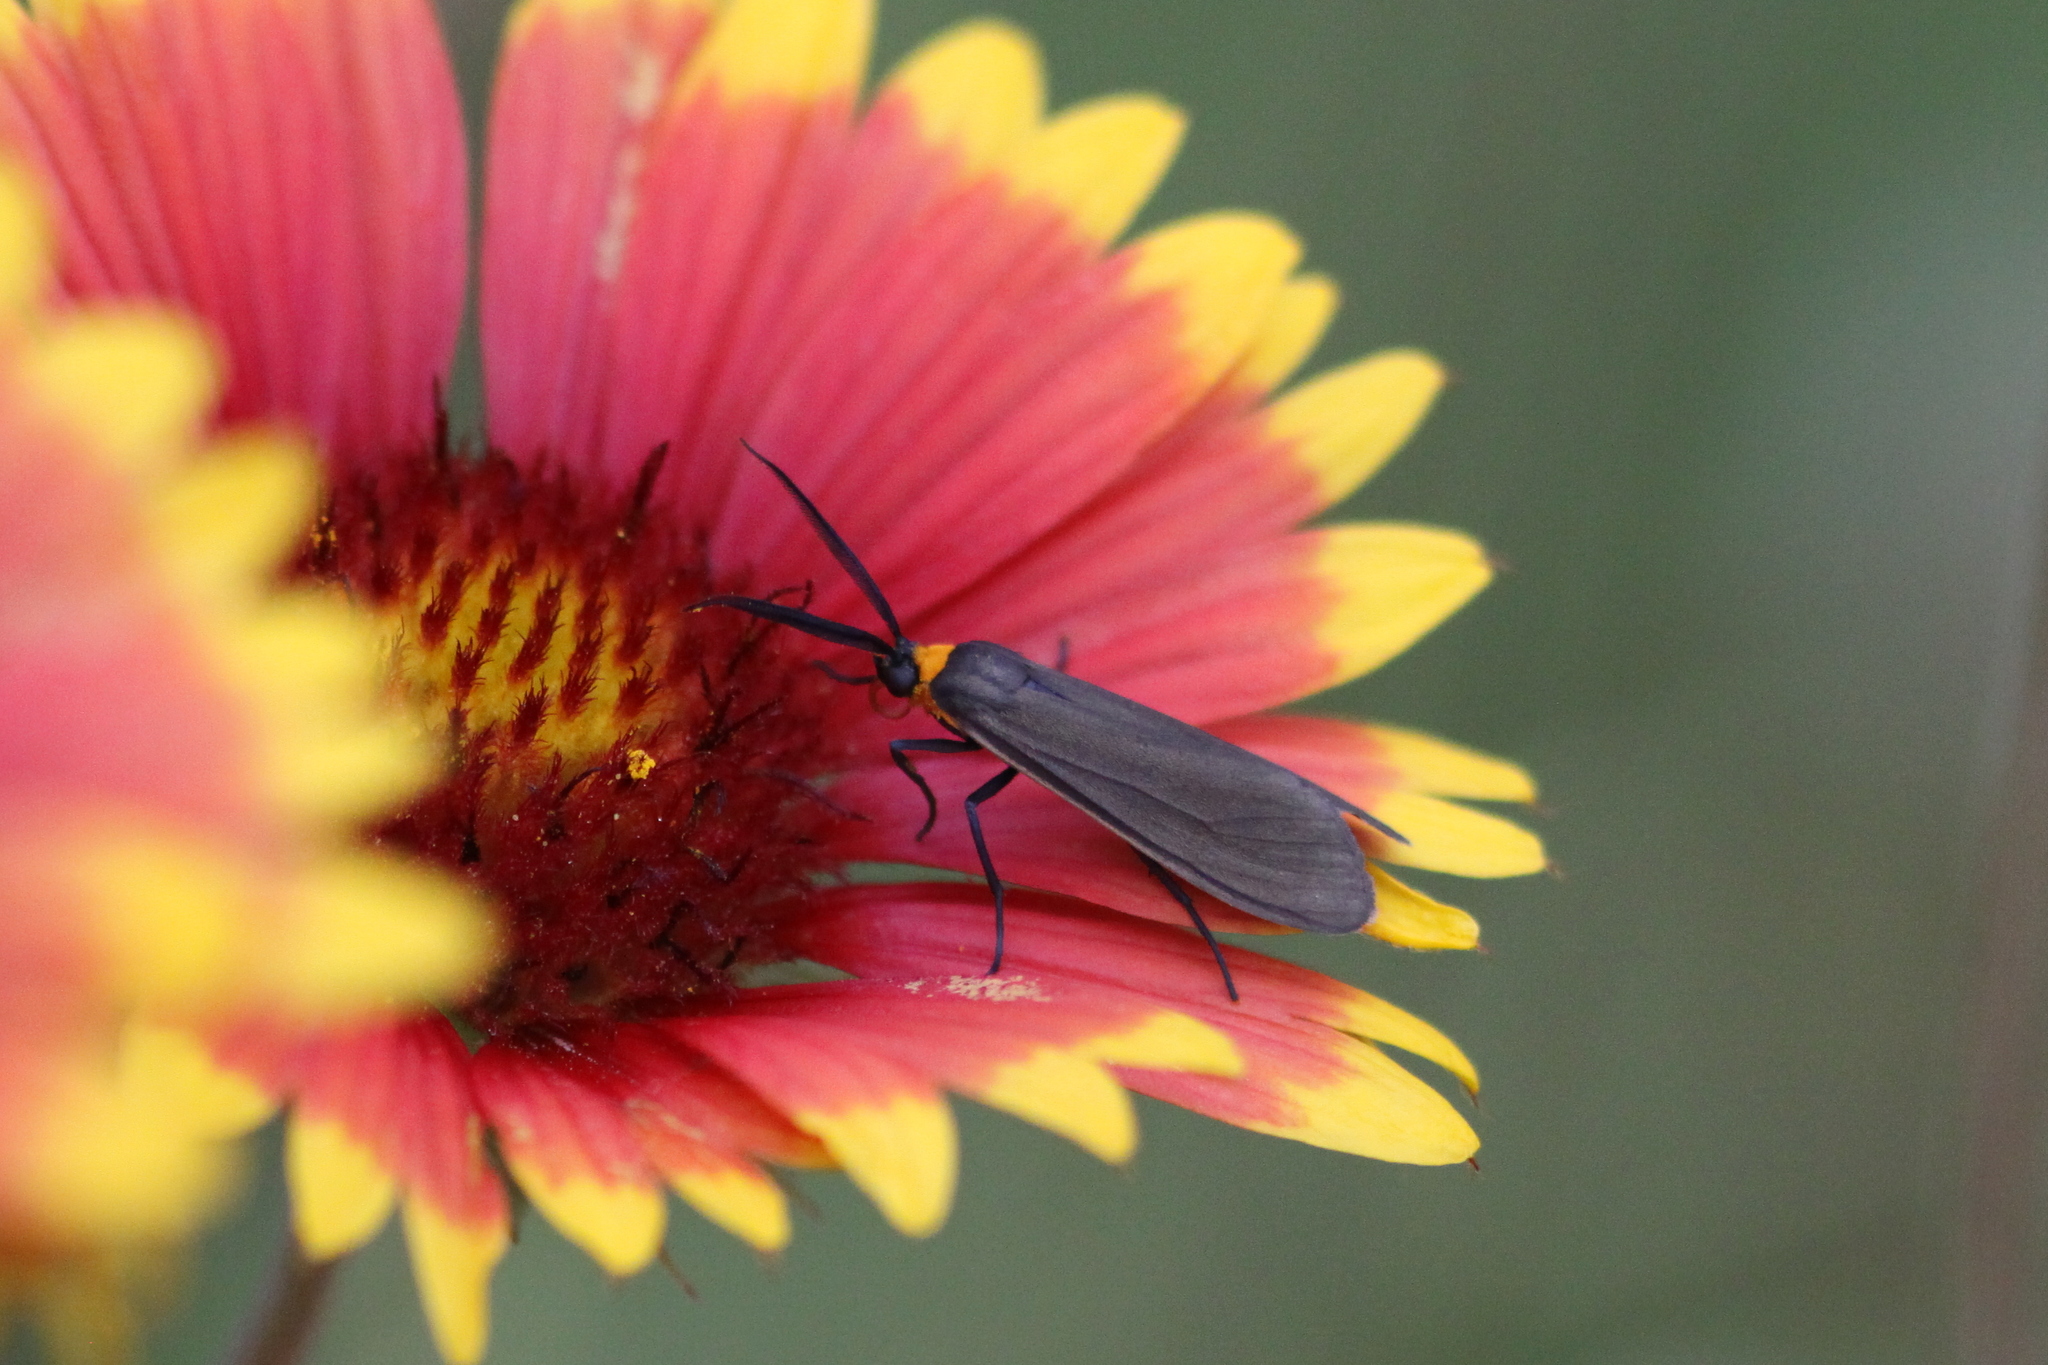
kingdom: Animalia
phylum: Arthropoda
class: Insecta
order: Lepidoptera
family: Erebidae
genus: Cisseps
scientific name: Cisseps fulvicollis
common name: Yellow-collared scape moth
